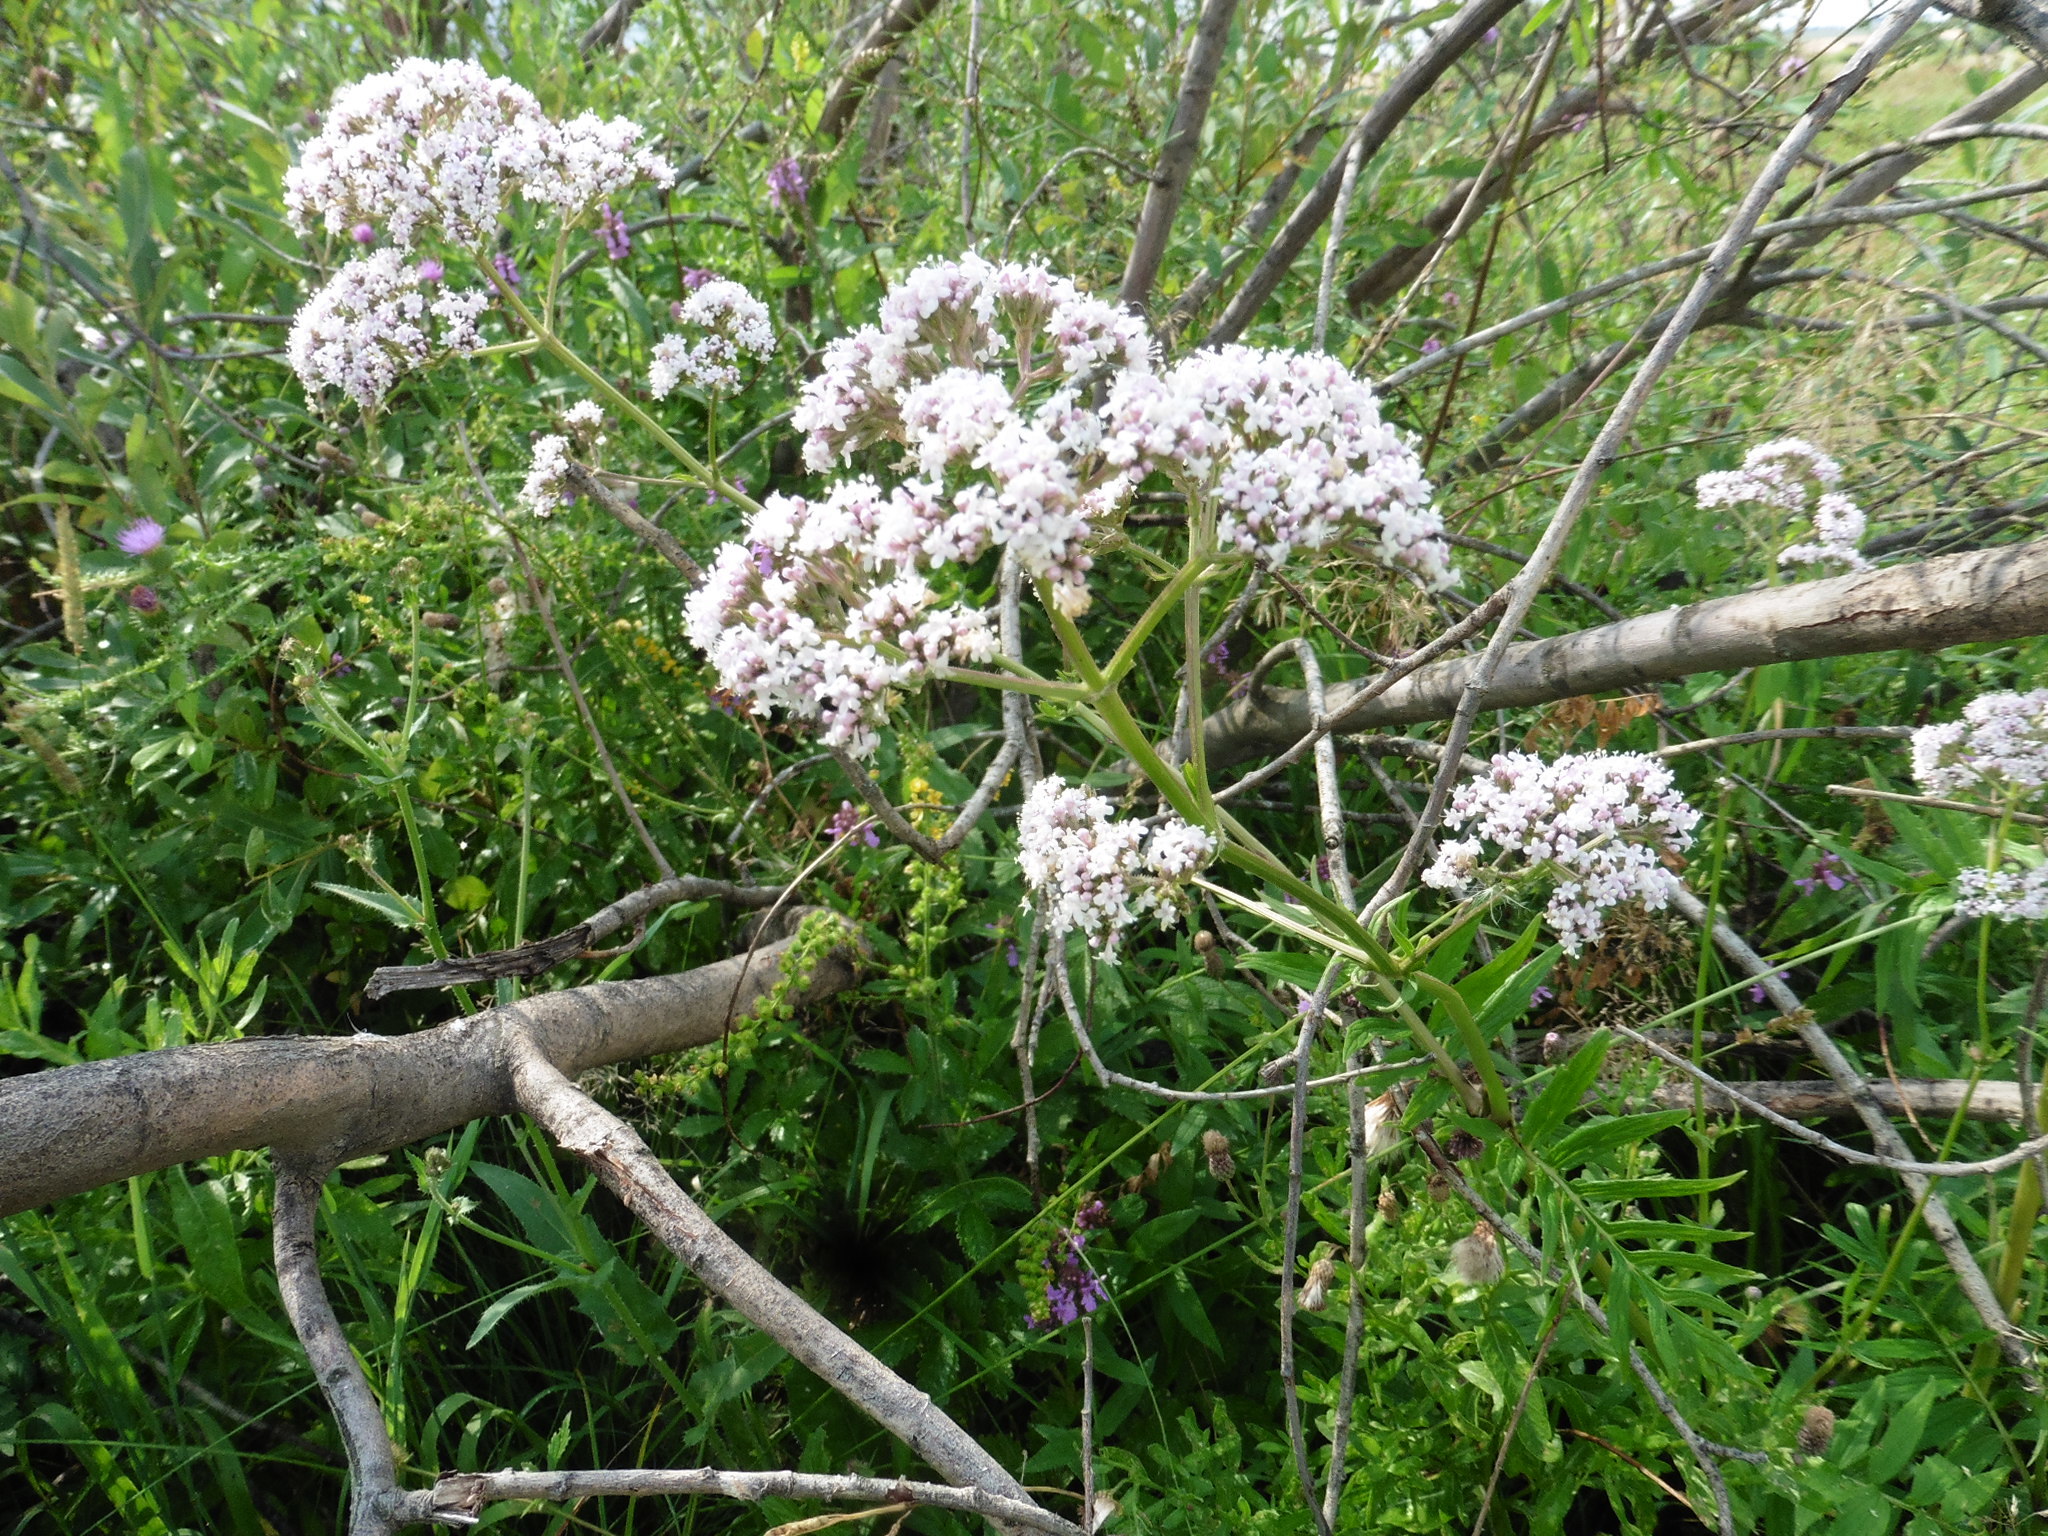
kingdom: Plantae
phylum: Tracheophyta
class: Magnoliopsida
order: Dipsacales
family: Caprifoliaceae
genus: Valeriana
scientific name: Valeriana officinalis
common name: Common valerian
